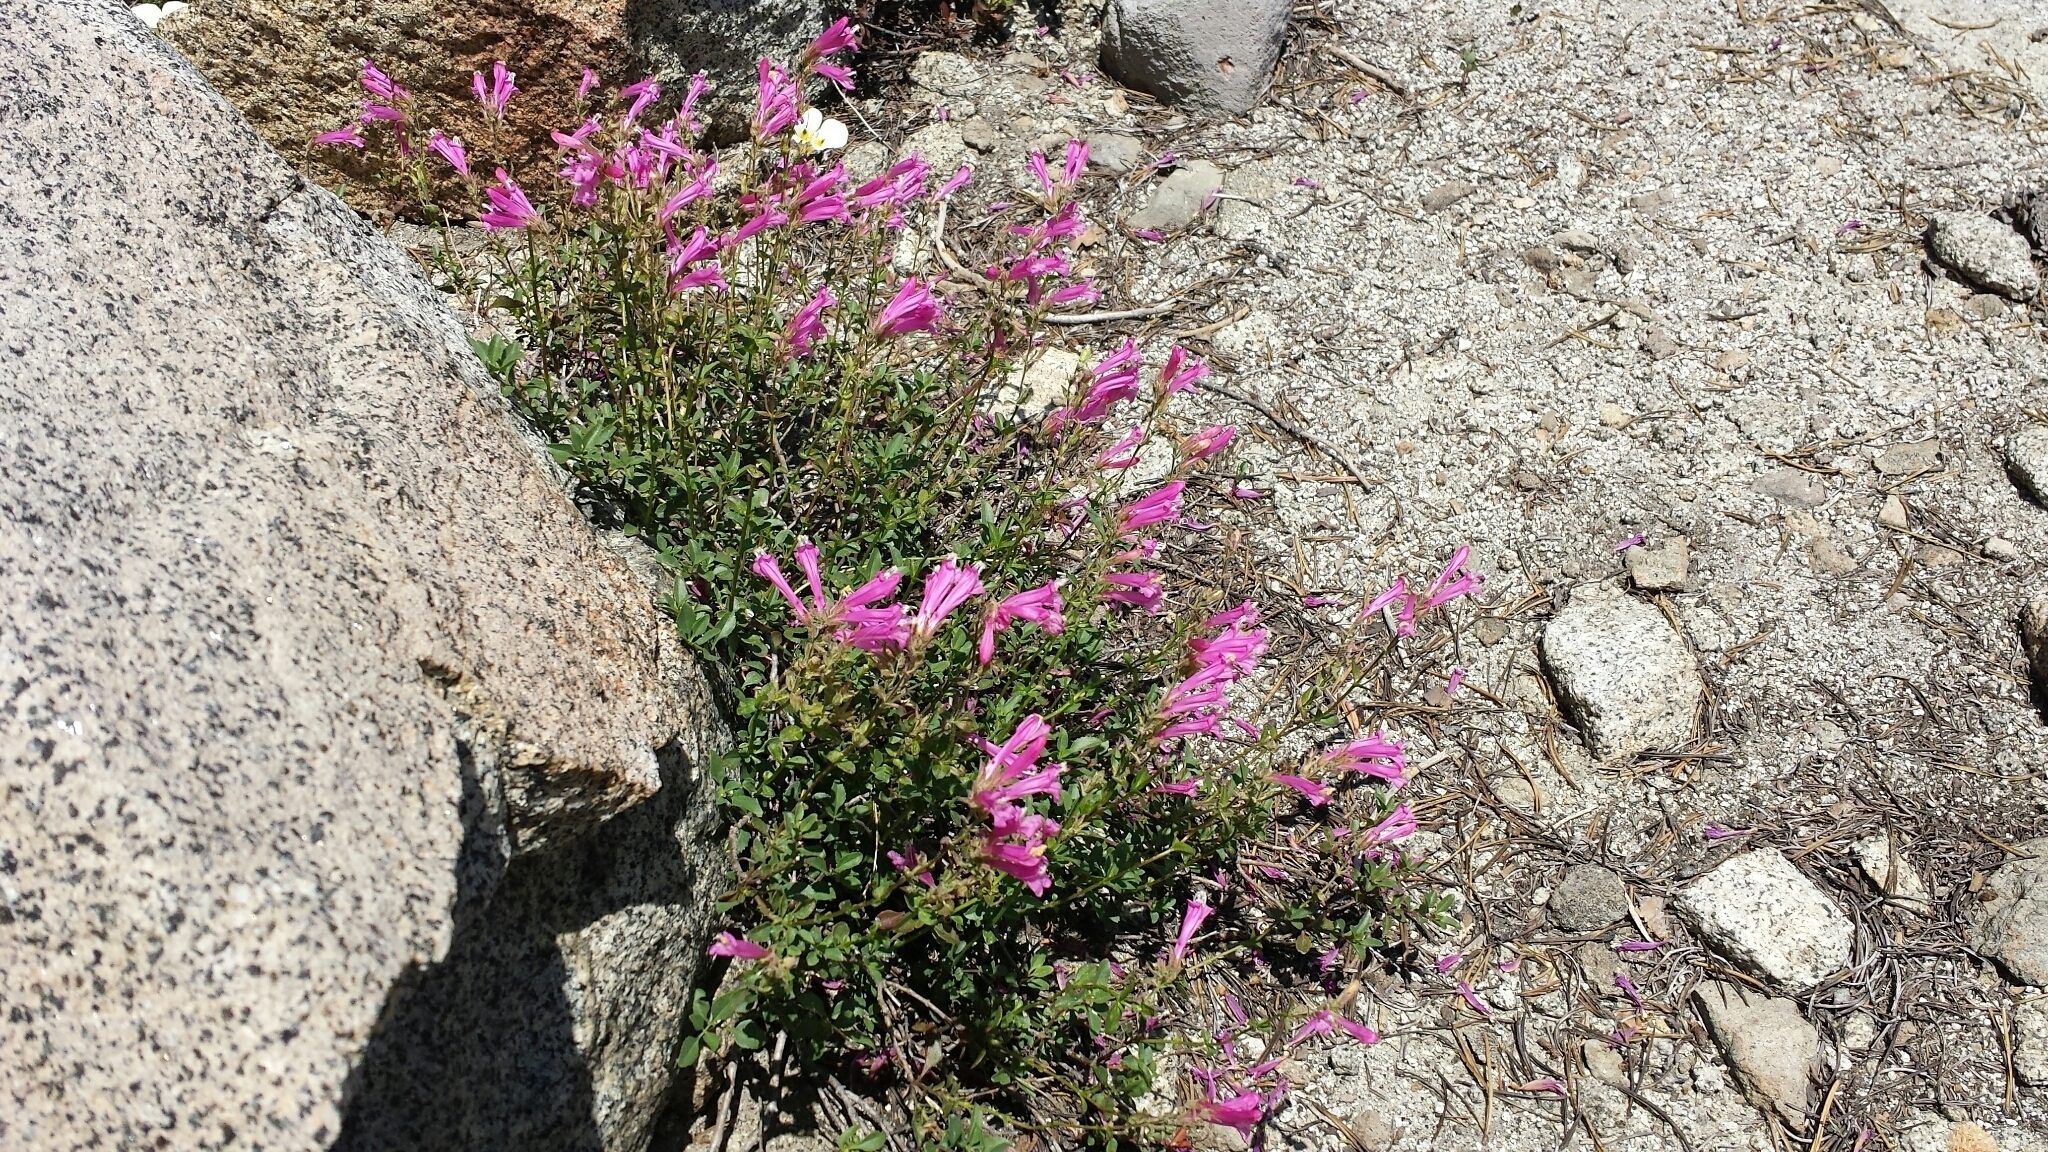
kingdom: Plantae
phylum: Tracheophyta
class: Magnoliopsida
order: Lamiales
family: Plantaginaceae
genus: Penstemon
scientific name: Penstemon newberryi
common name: Mountain-pride
